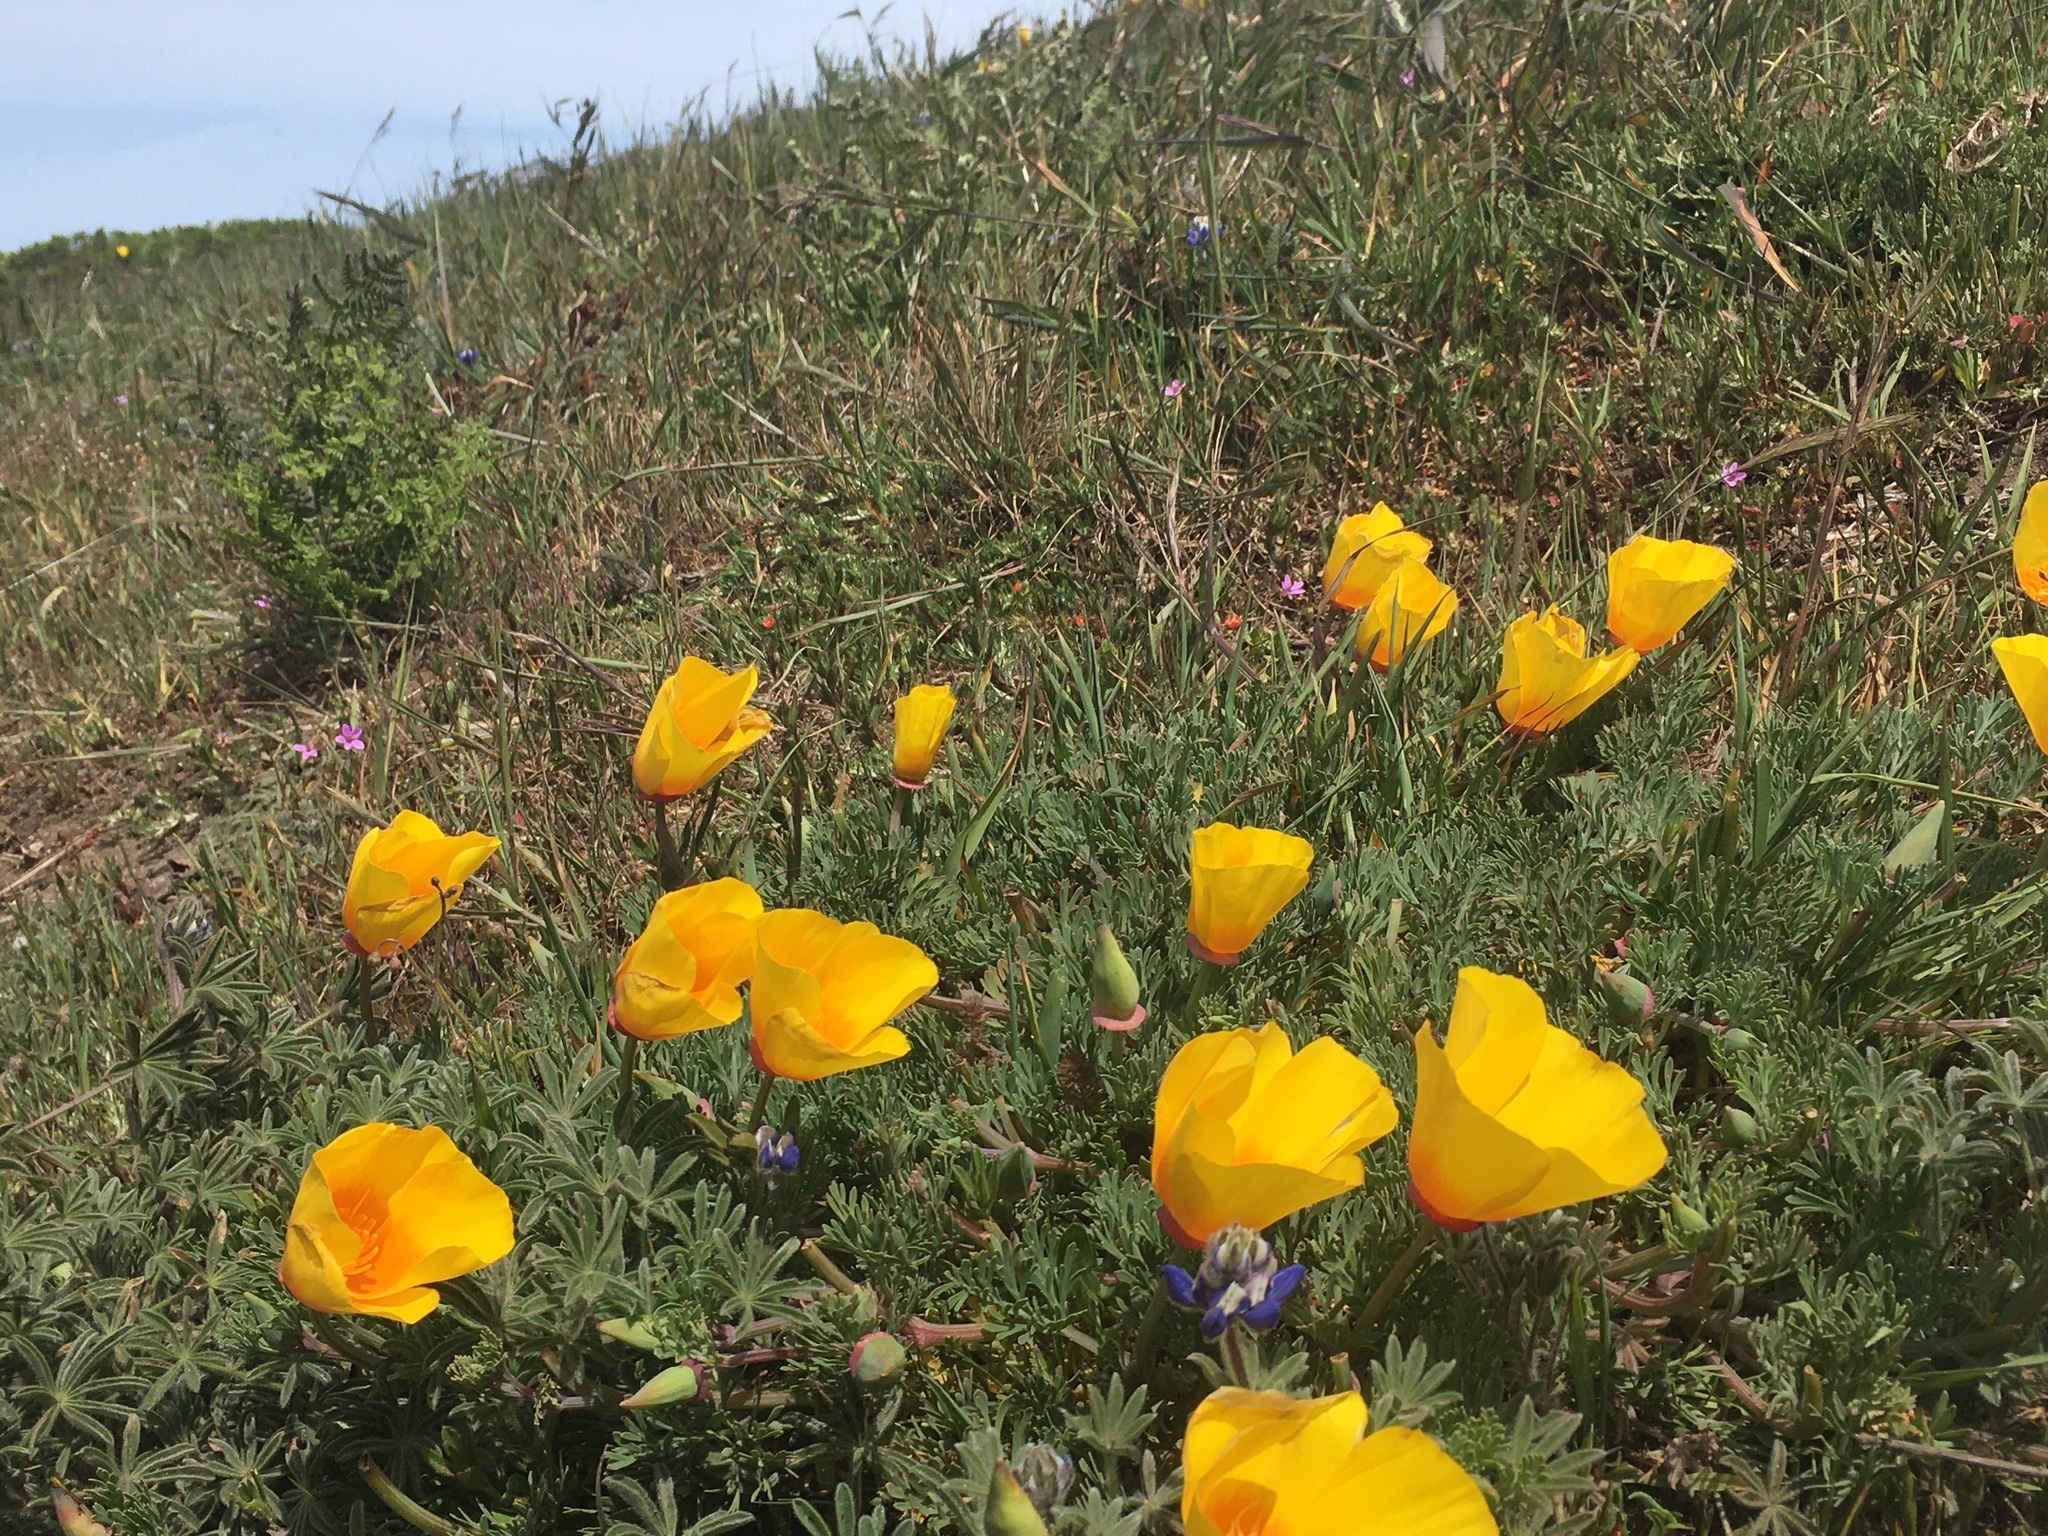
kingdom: Plantae
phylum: Tracheophyta
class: Magnoliopsida
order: Ranunculales
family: Papaveraceae
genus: Eschscholzia
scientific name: Eschscholzia californica
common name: California poppy
